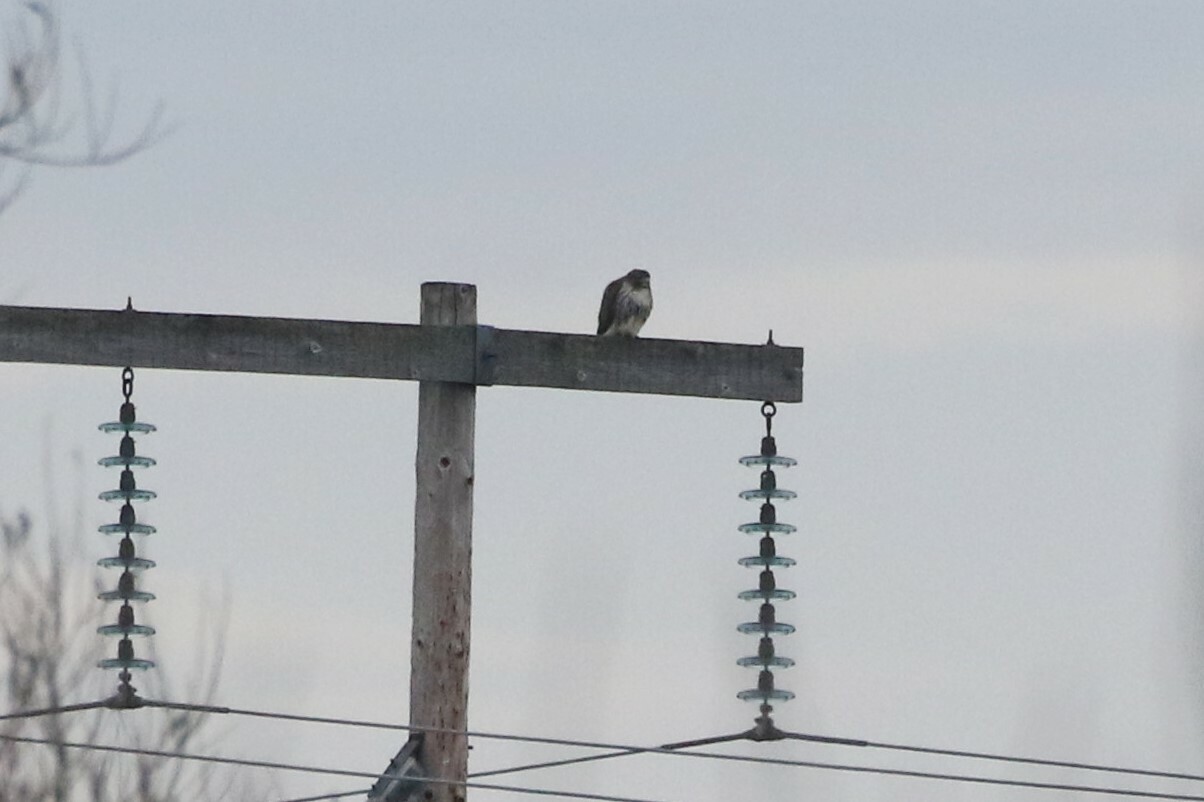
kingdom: Animalia
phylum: Chordata
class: Aves
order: Accipitriformes
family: Accipitridae
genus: Buteo
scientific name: Buteo jamaicensis
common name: Red-tailed hawk
